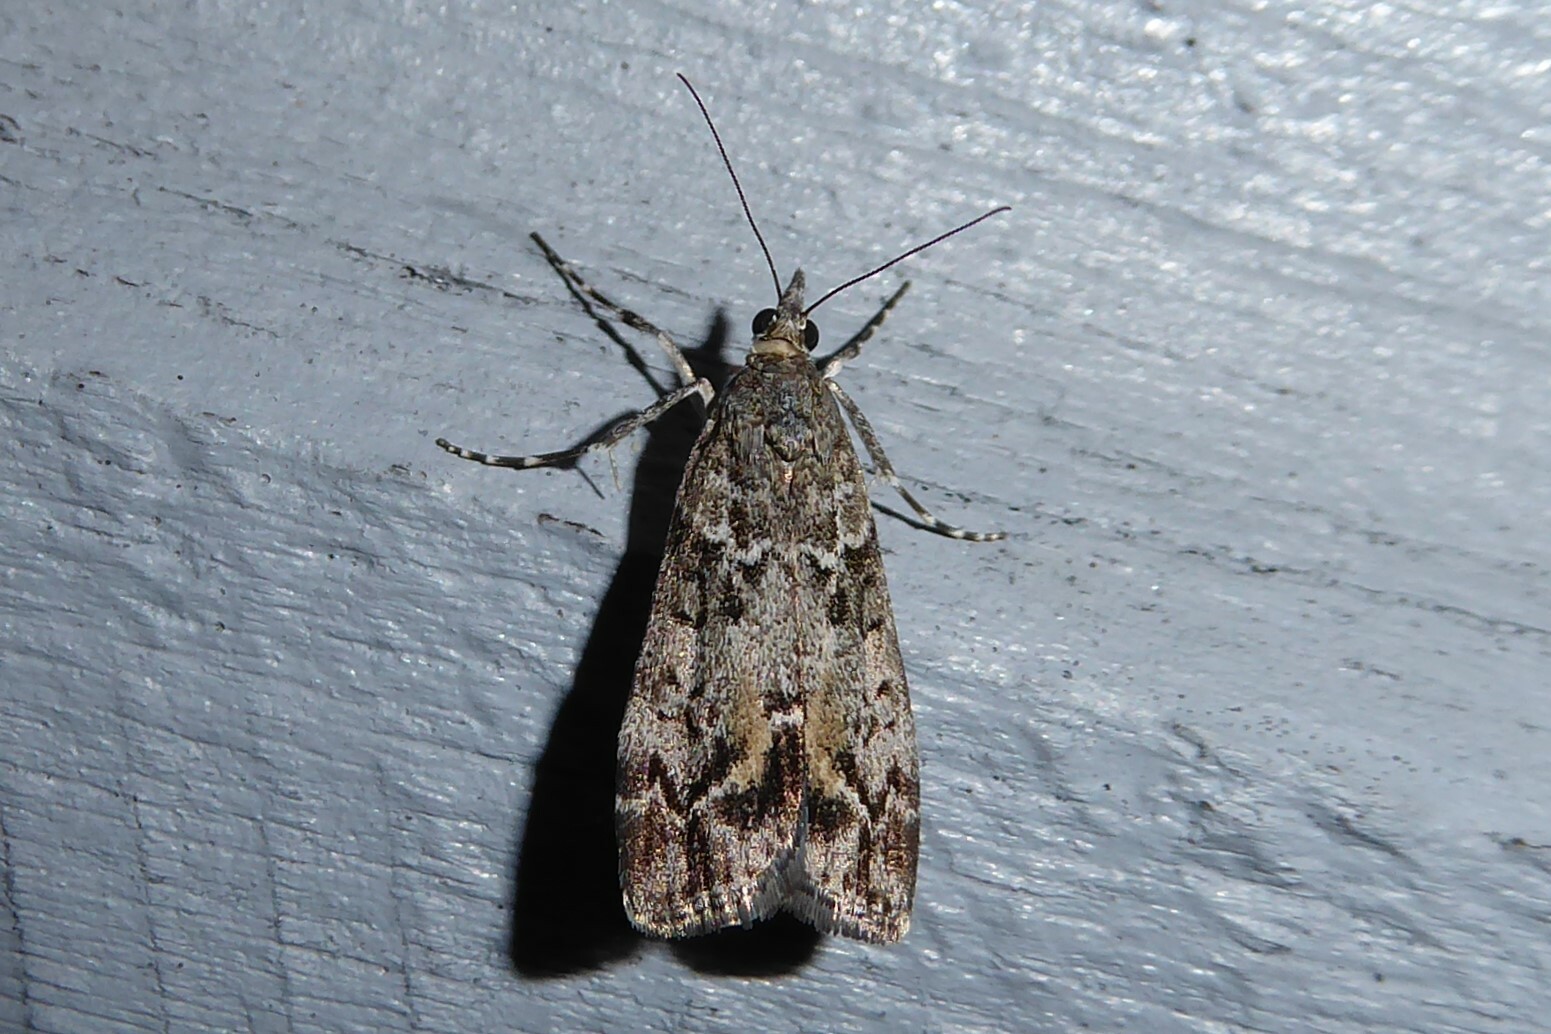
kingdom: Animalia
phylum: Arthropoda
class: Insecta
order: Lepidoptera
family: Crambidae
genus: Eudonia
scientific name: Eudonia submarginalis
